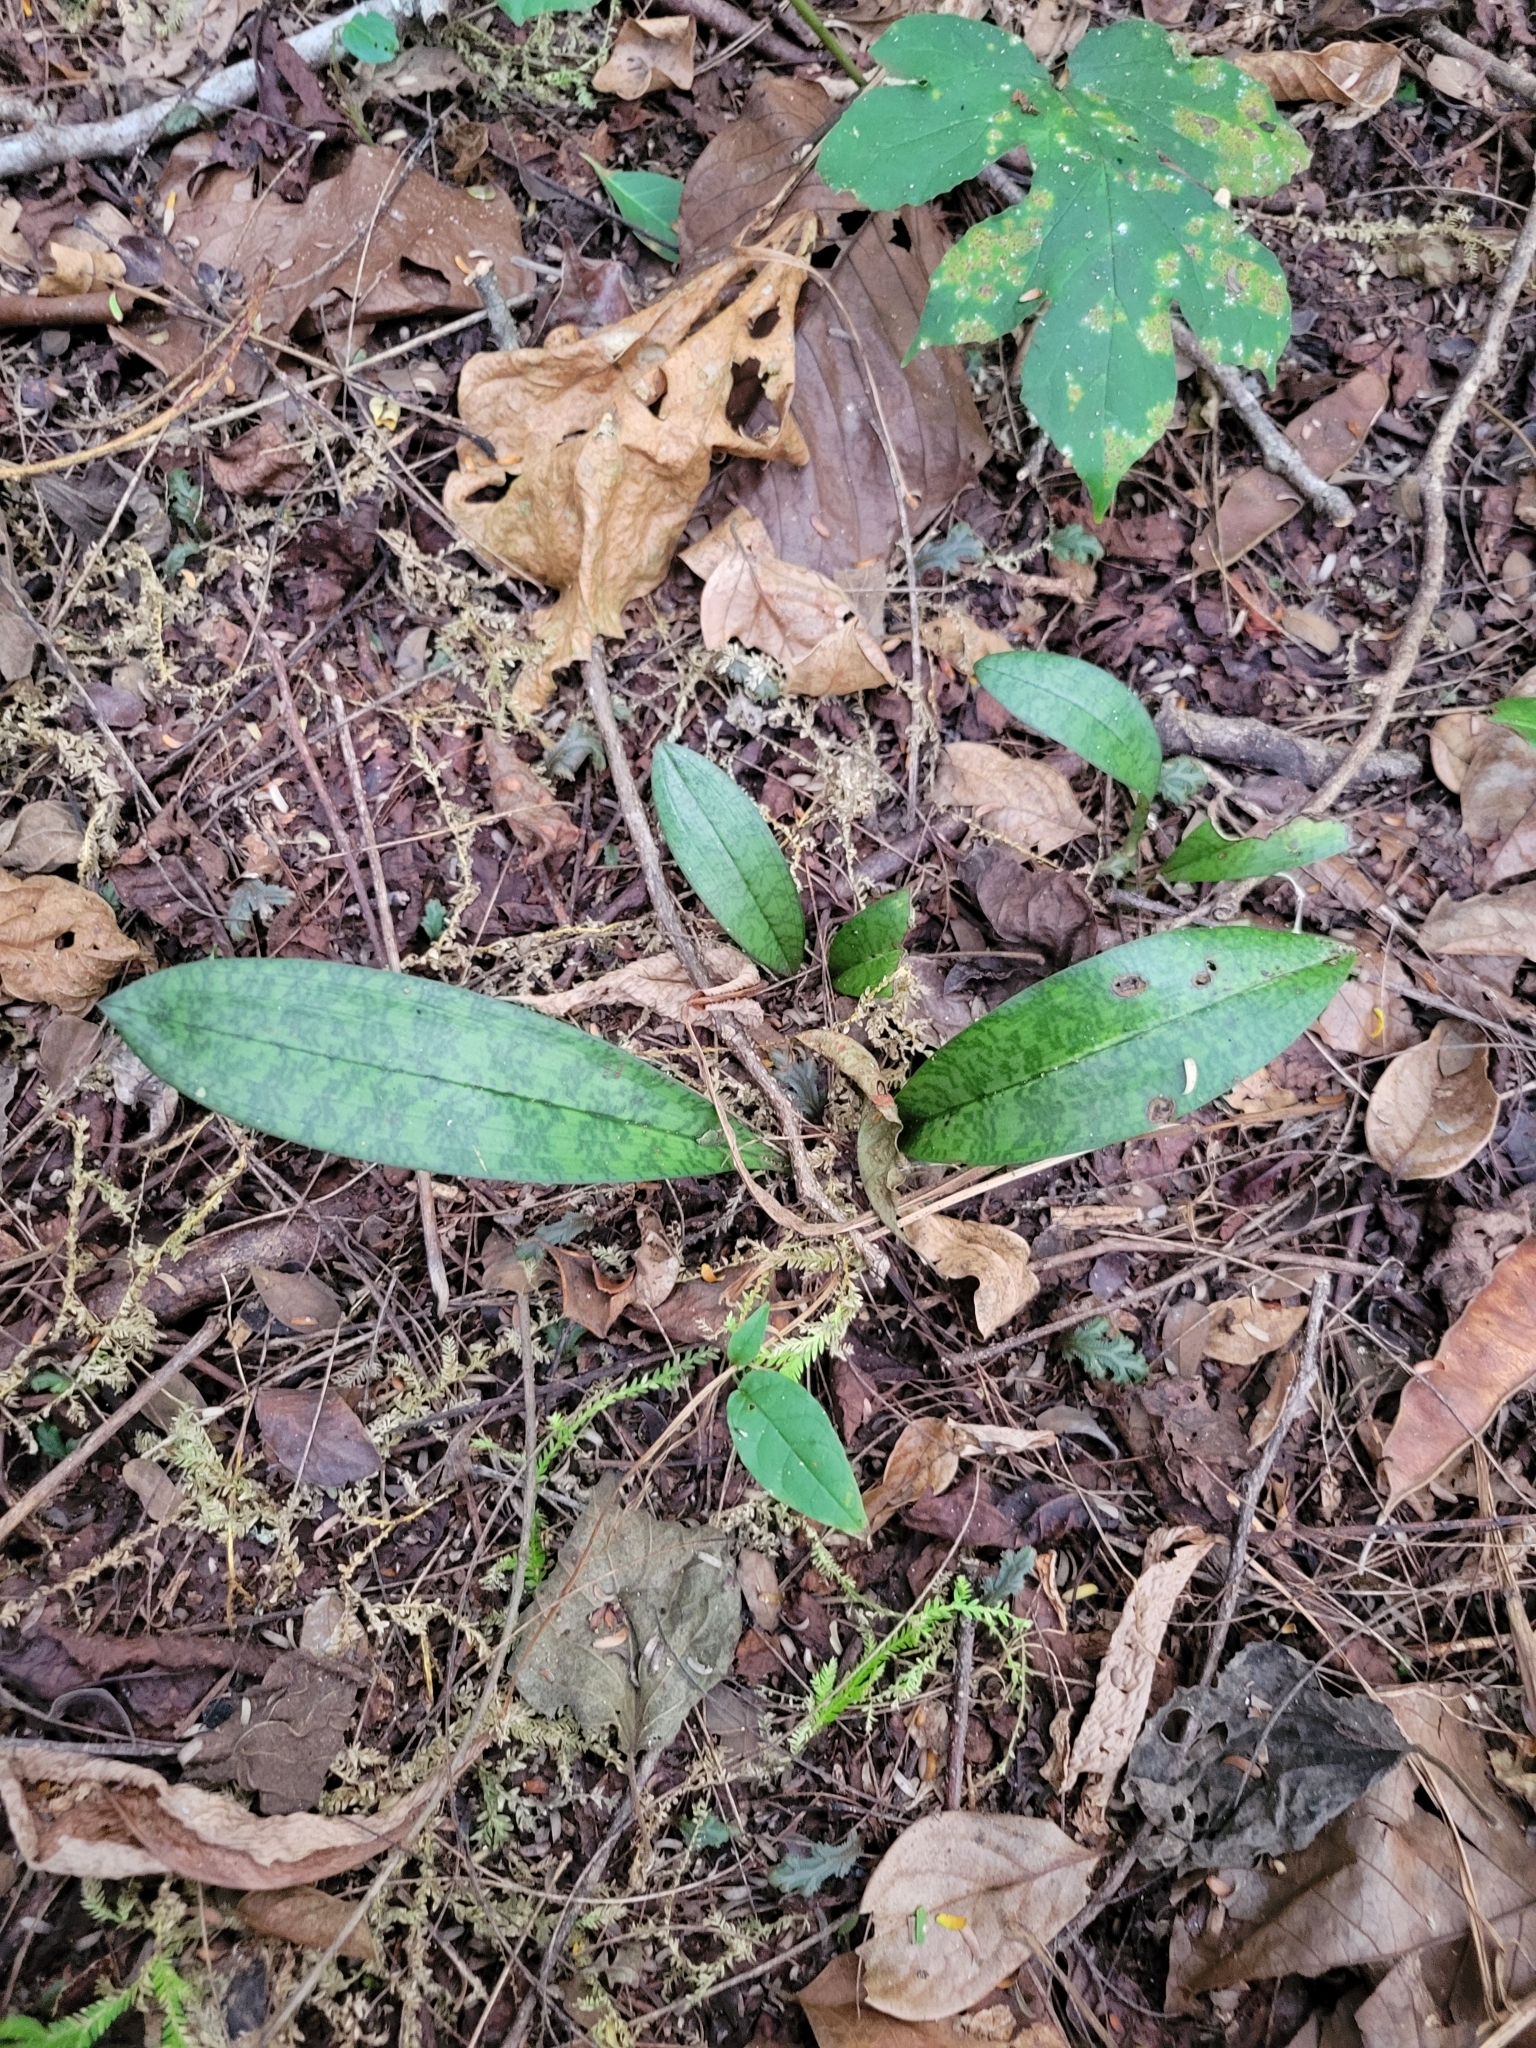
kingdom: Plantae
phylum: Tracheophyta
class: Liliopsida
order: Asparagales
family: Orchidaceae
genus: Eulophia
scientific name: Eulophia maculata
